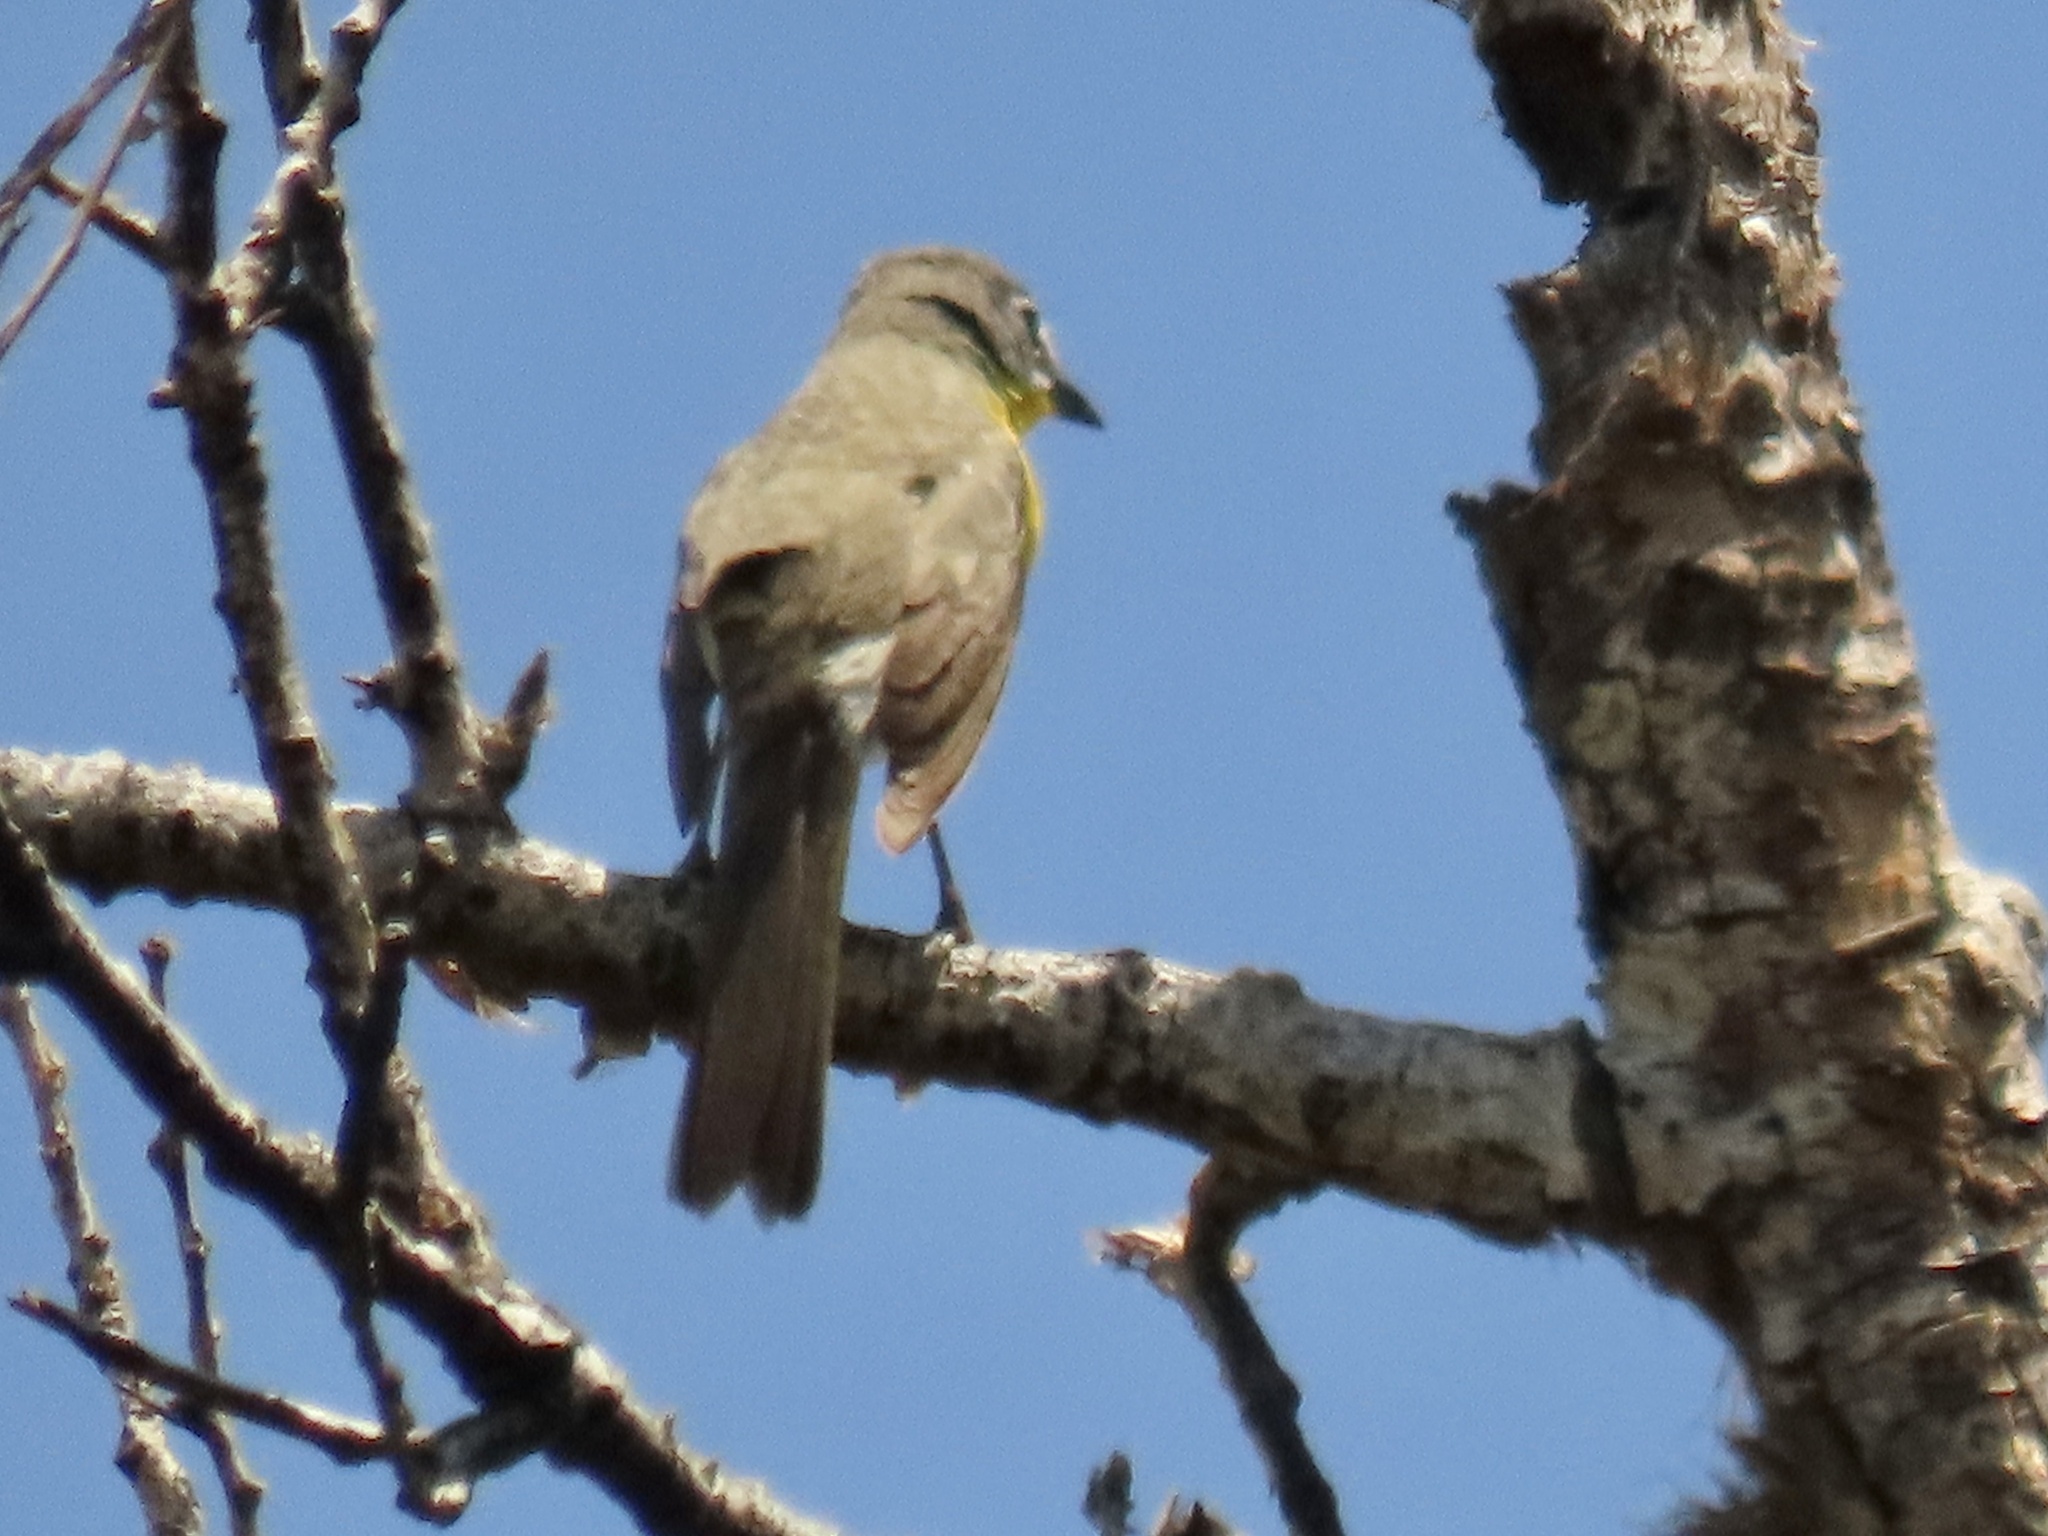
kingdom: Animalia
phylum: Chordata
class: Aves
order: Passeriformes
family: Parulidae
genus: Icteria
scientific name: Icteria virens
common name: Yellow-breasted chat
